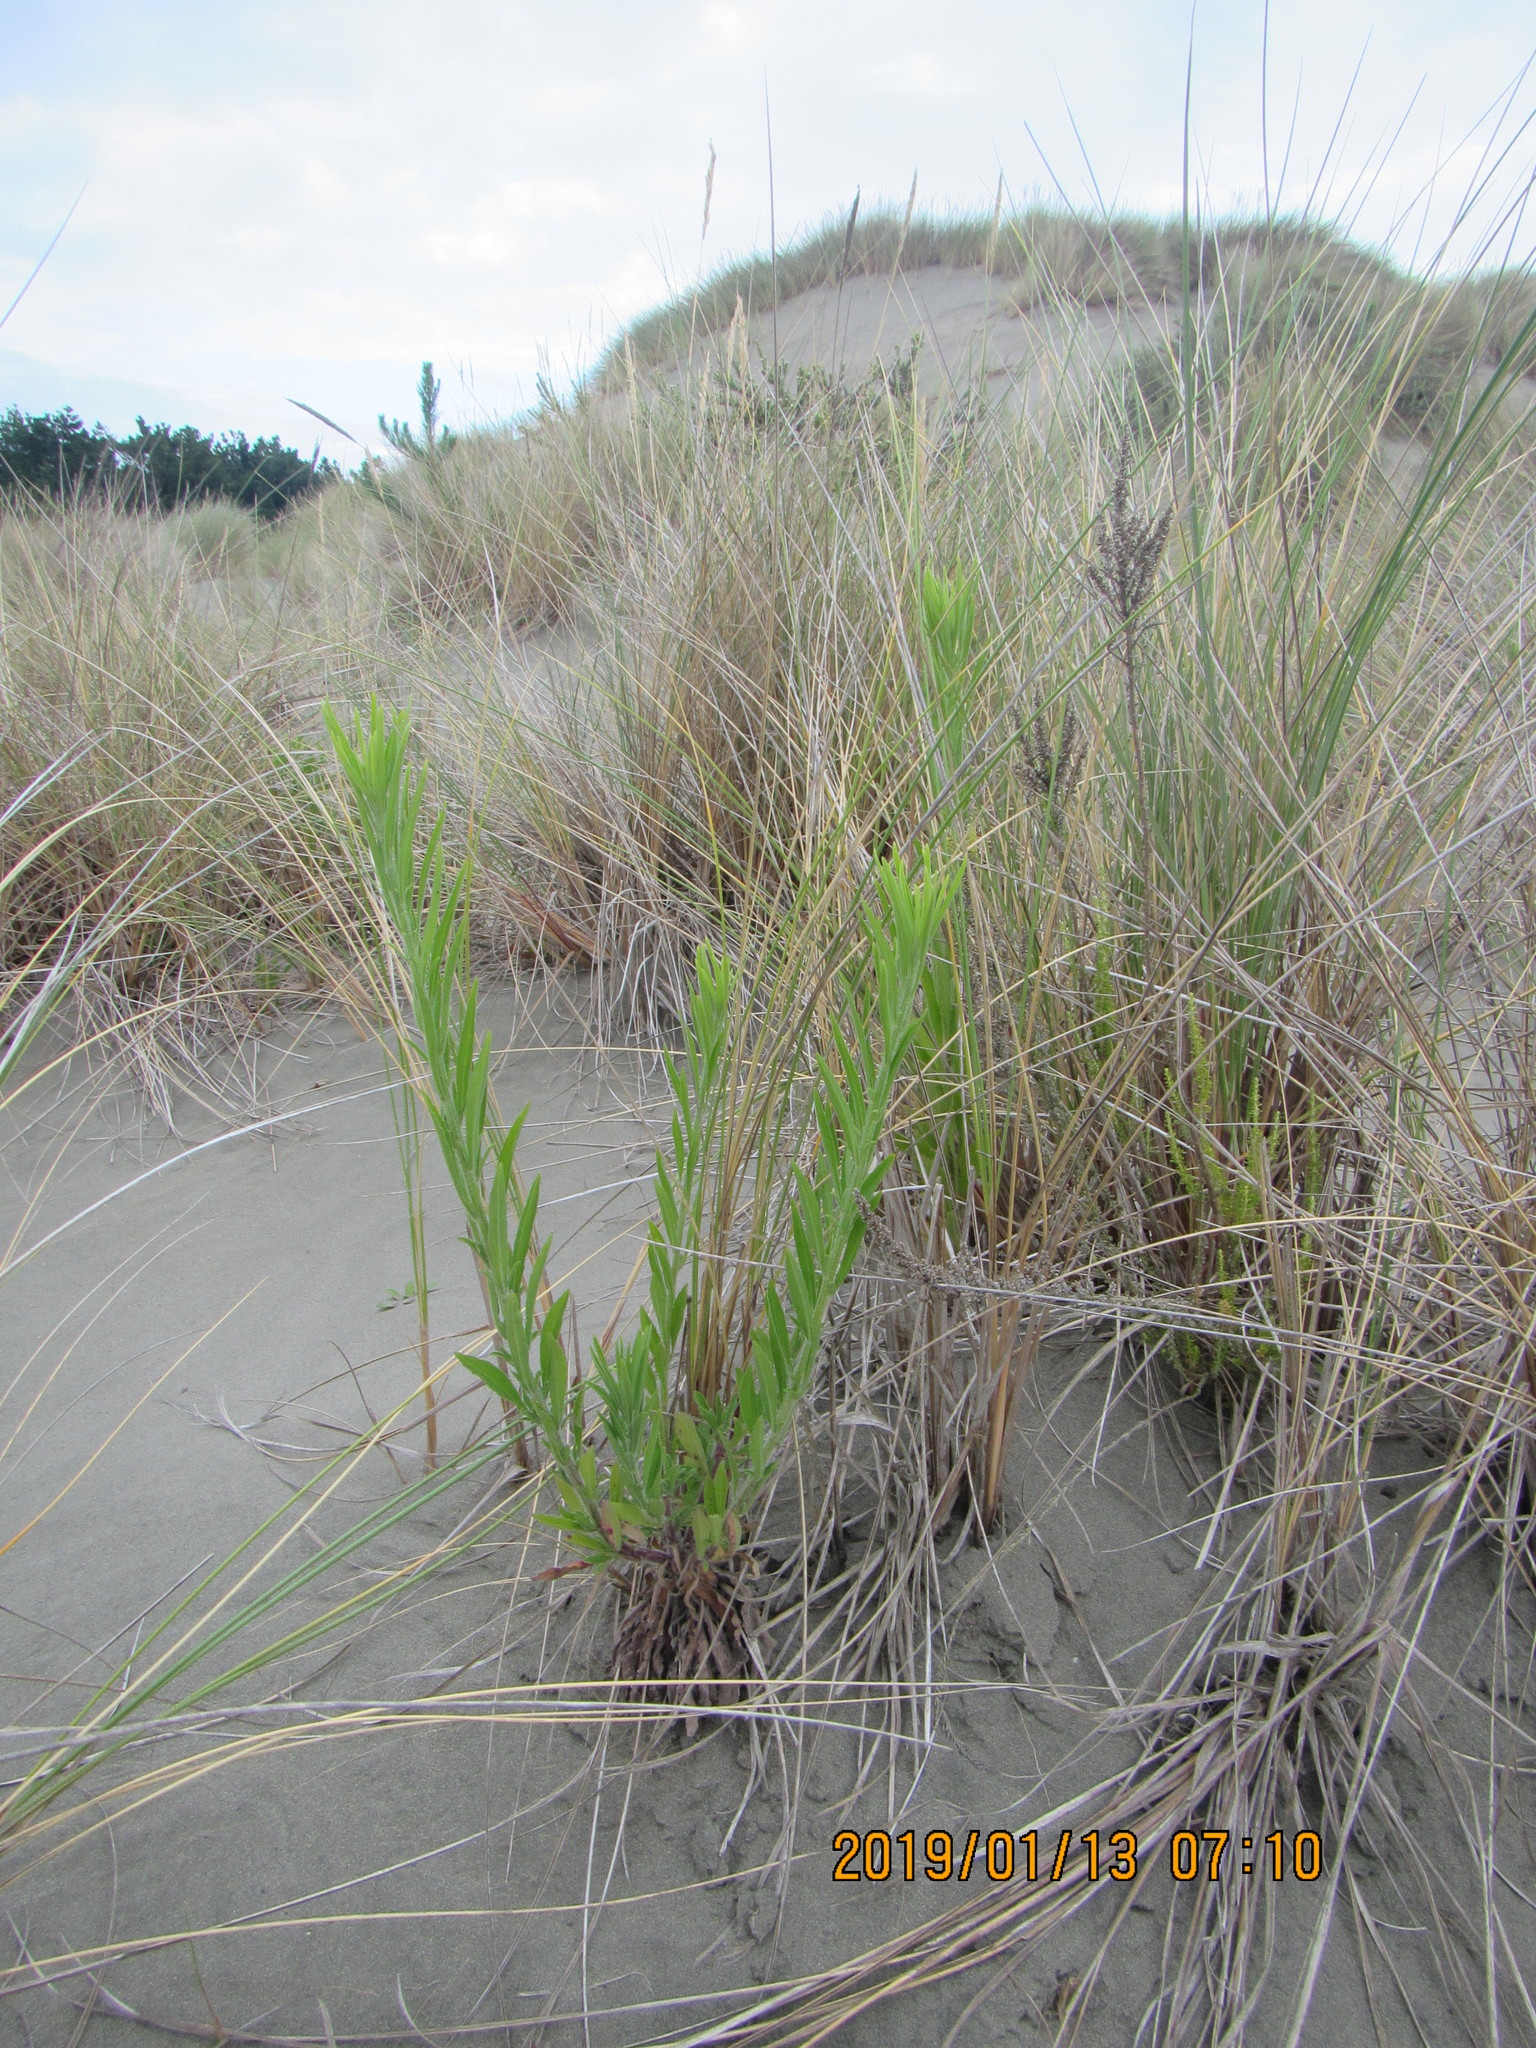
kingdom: Plantae
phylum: Tracheophyta
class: Magnoliopsida
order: Asterales
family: Asteraceae
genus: Erigeron
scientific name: Erigeron sumatrensis
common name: Daisy
